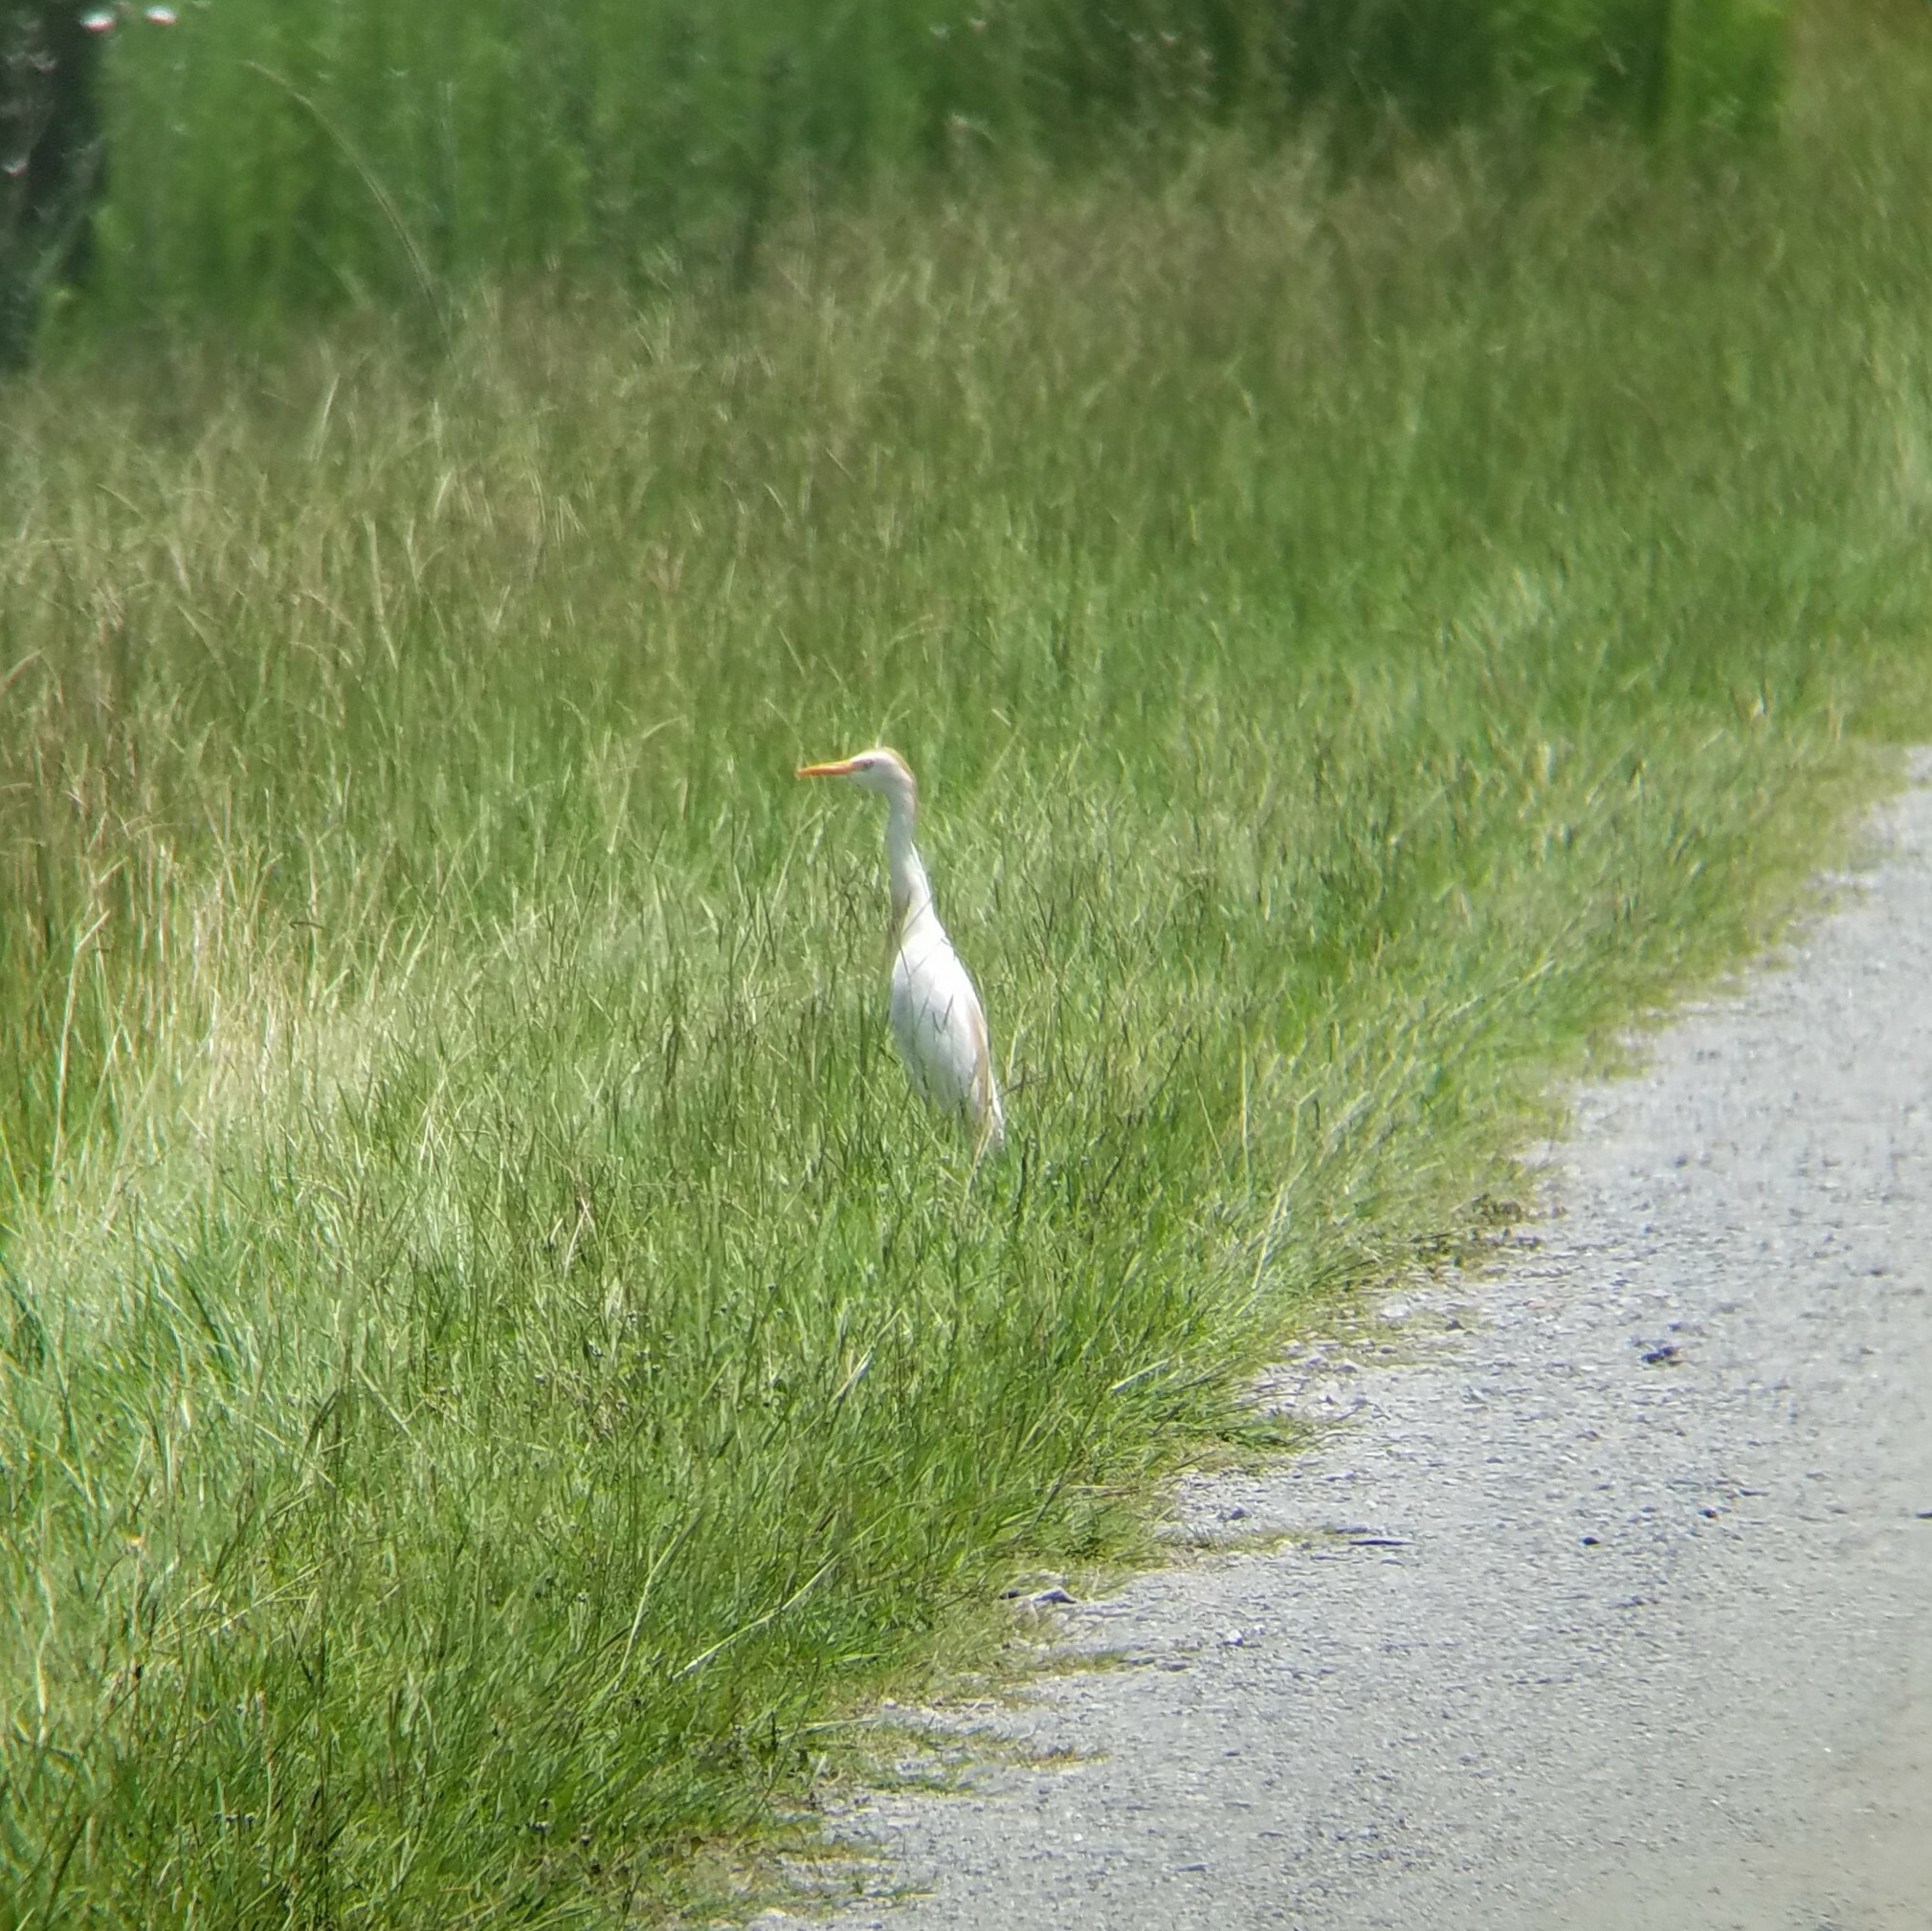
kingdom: Animalia
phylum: Chordata
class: Aves
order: Pelecaniformes
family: Ardeidae
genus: Bubulcus
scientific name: Bubulcus ibis
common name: Cattle egret
